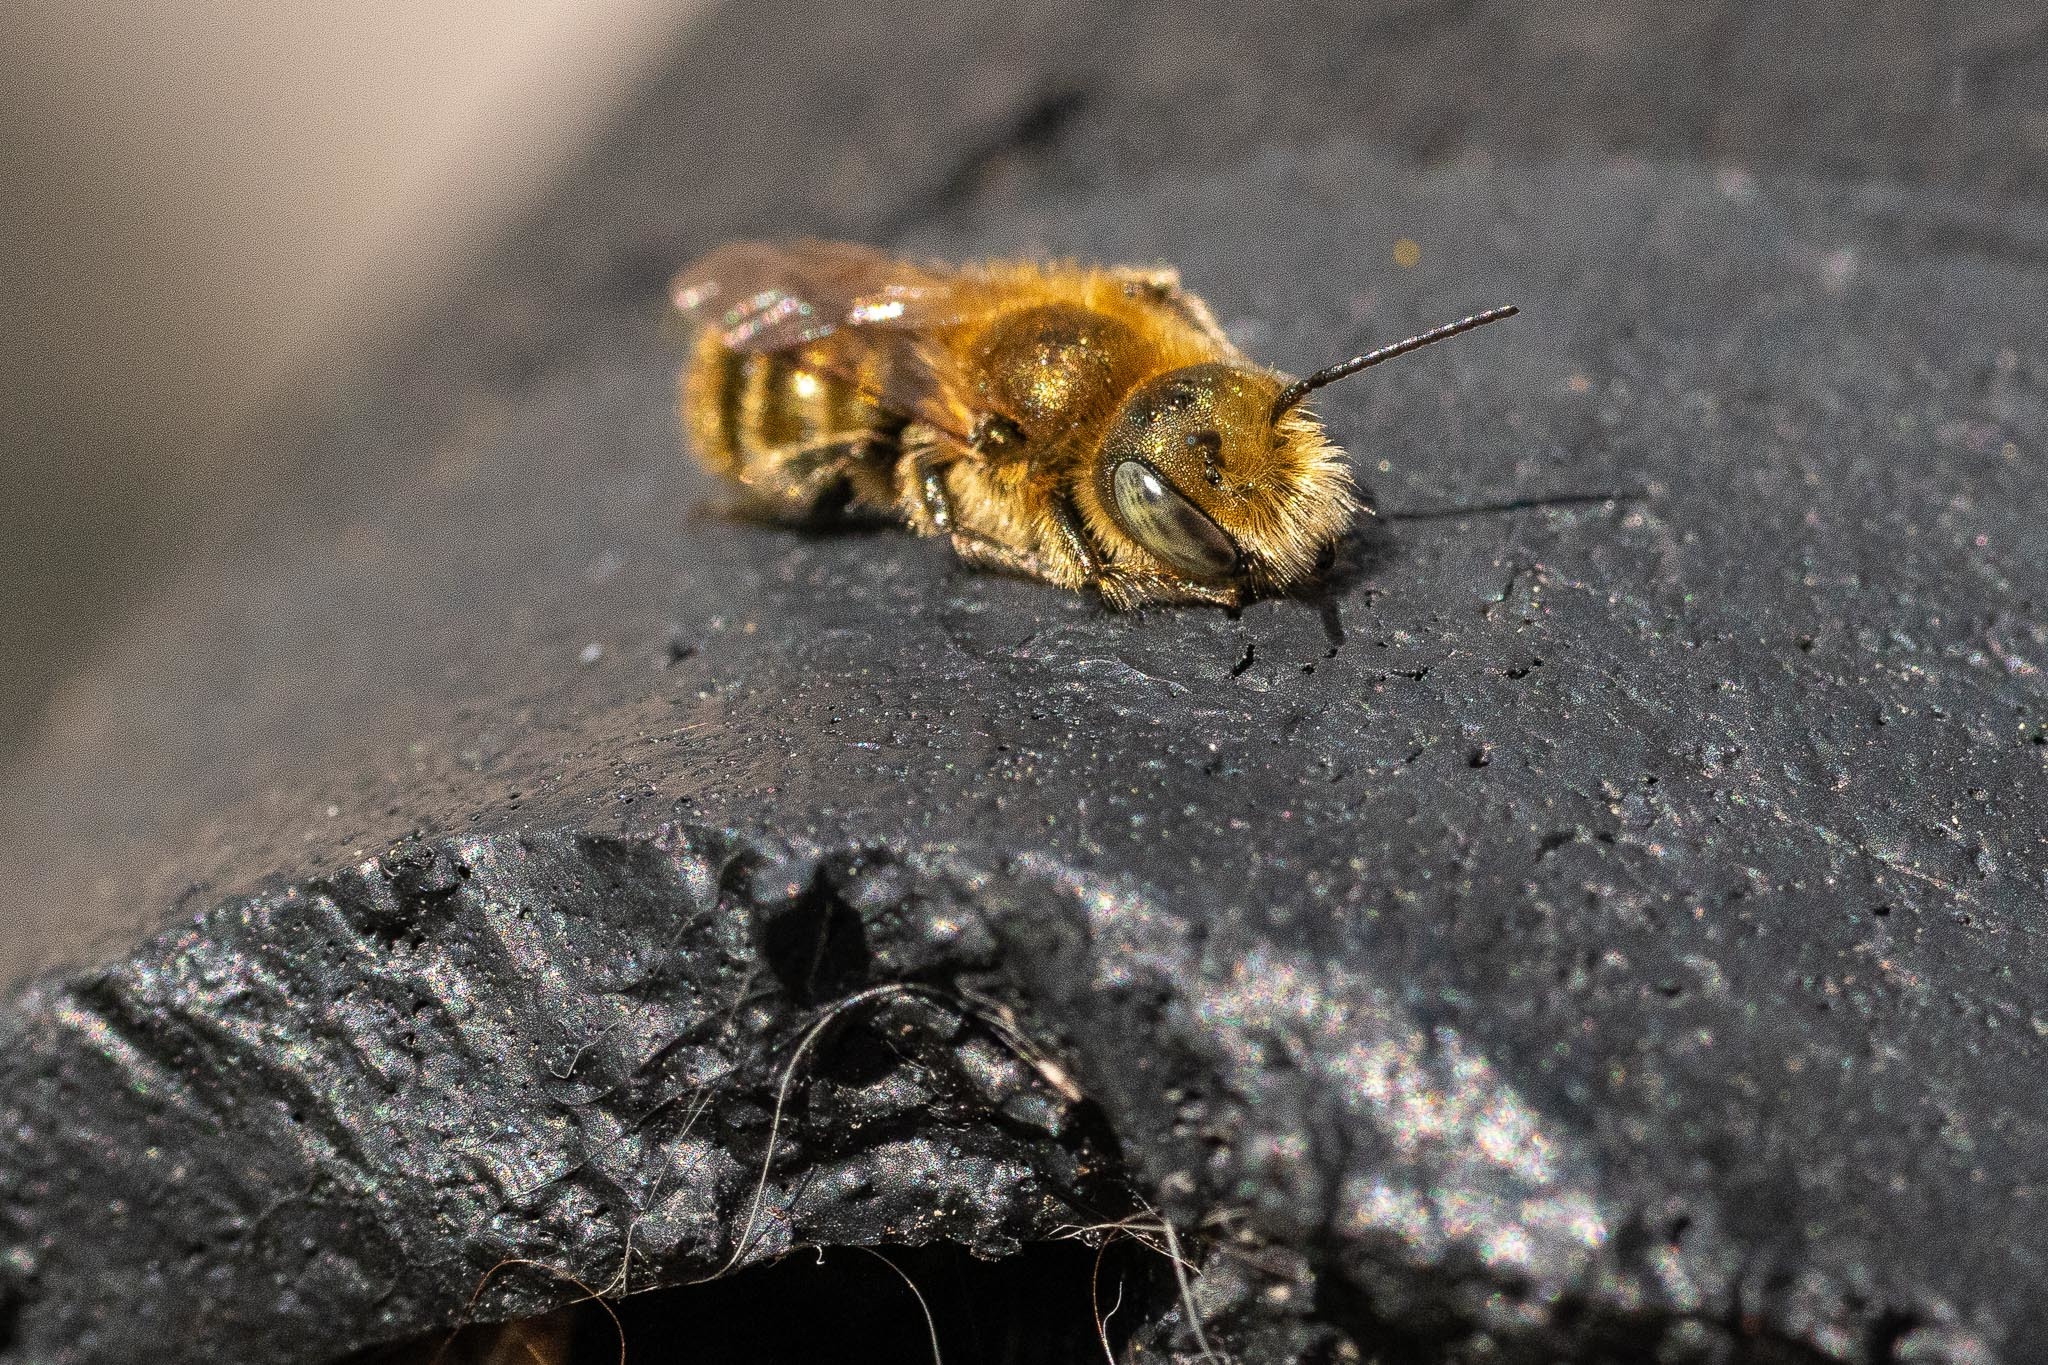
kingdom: Animalia
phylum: Arthropoda
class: Insecta
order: Hymenoptera
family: Megachilidae
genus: Osmia
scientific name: Osmia caerulescens
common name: Blue mason bee
